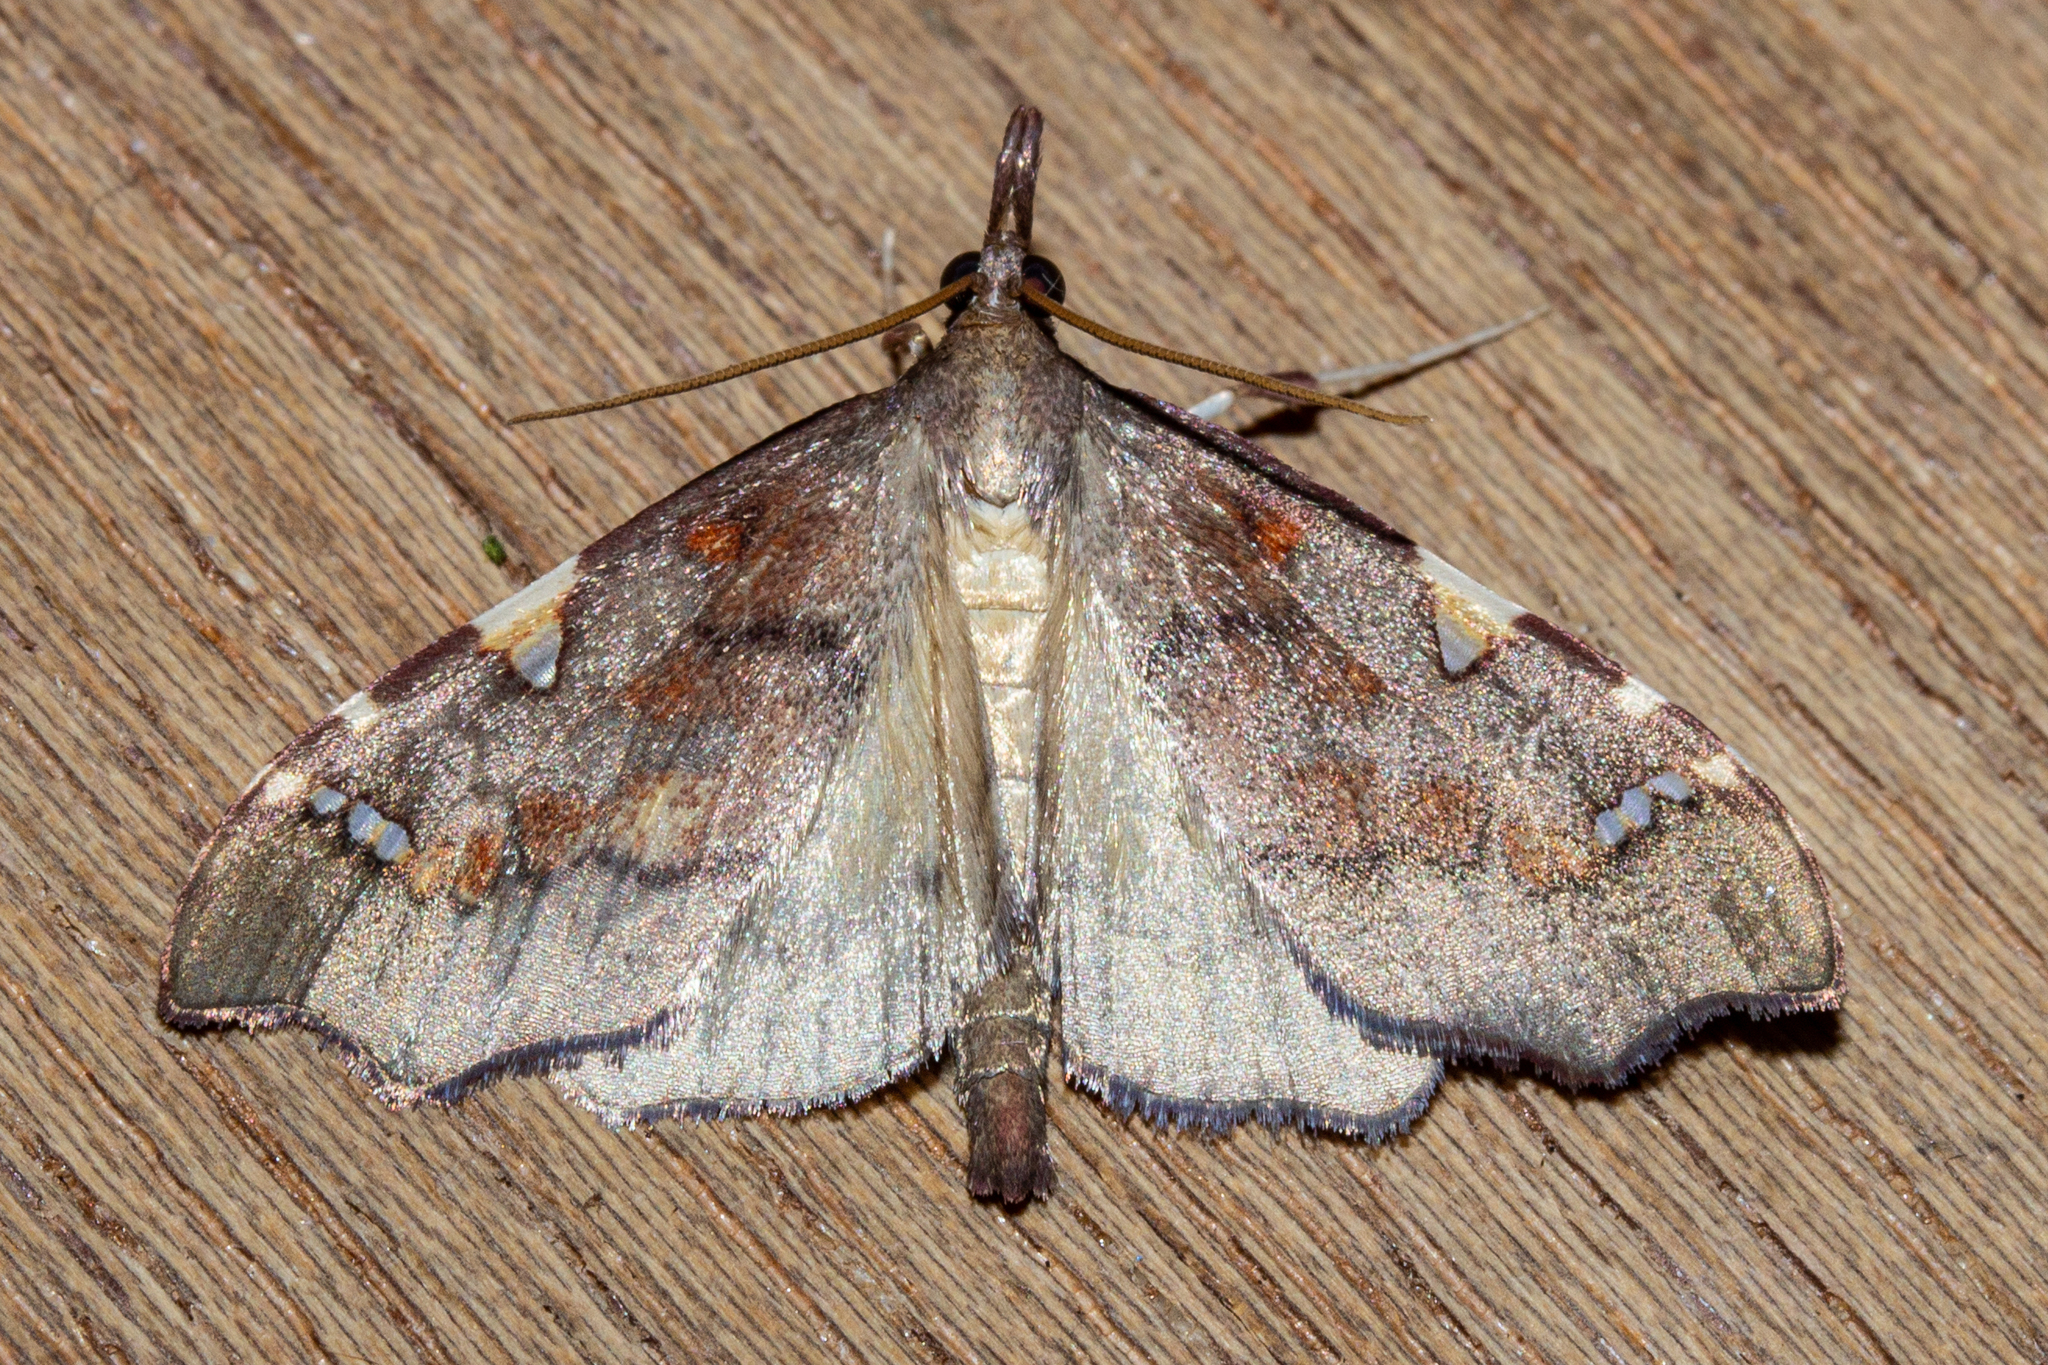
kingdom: Animalia
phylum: Arthropoda
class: Insecta
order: Lepidoptera
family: Crambidae
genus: Deana
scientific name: Deana hybreasalis
